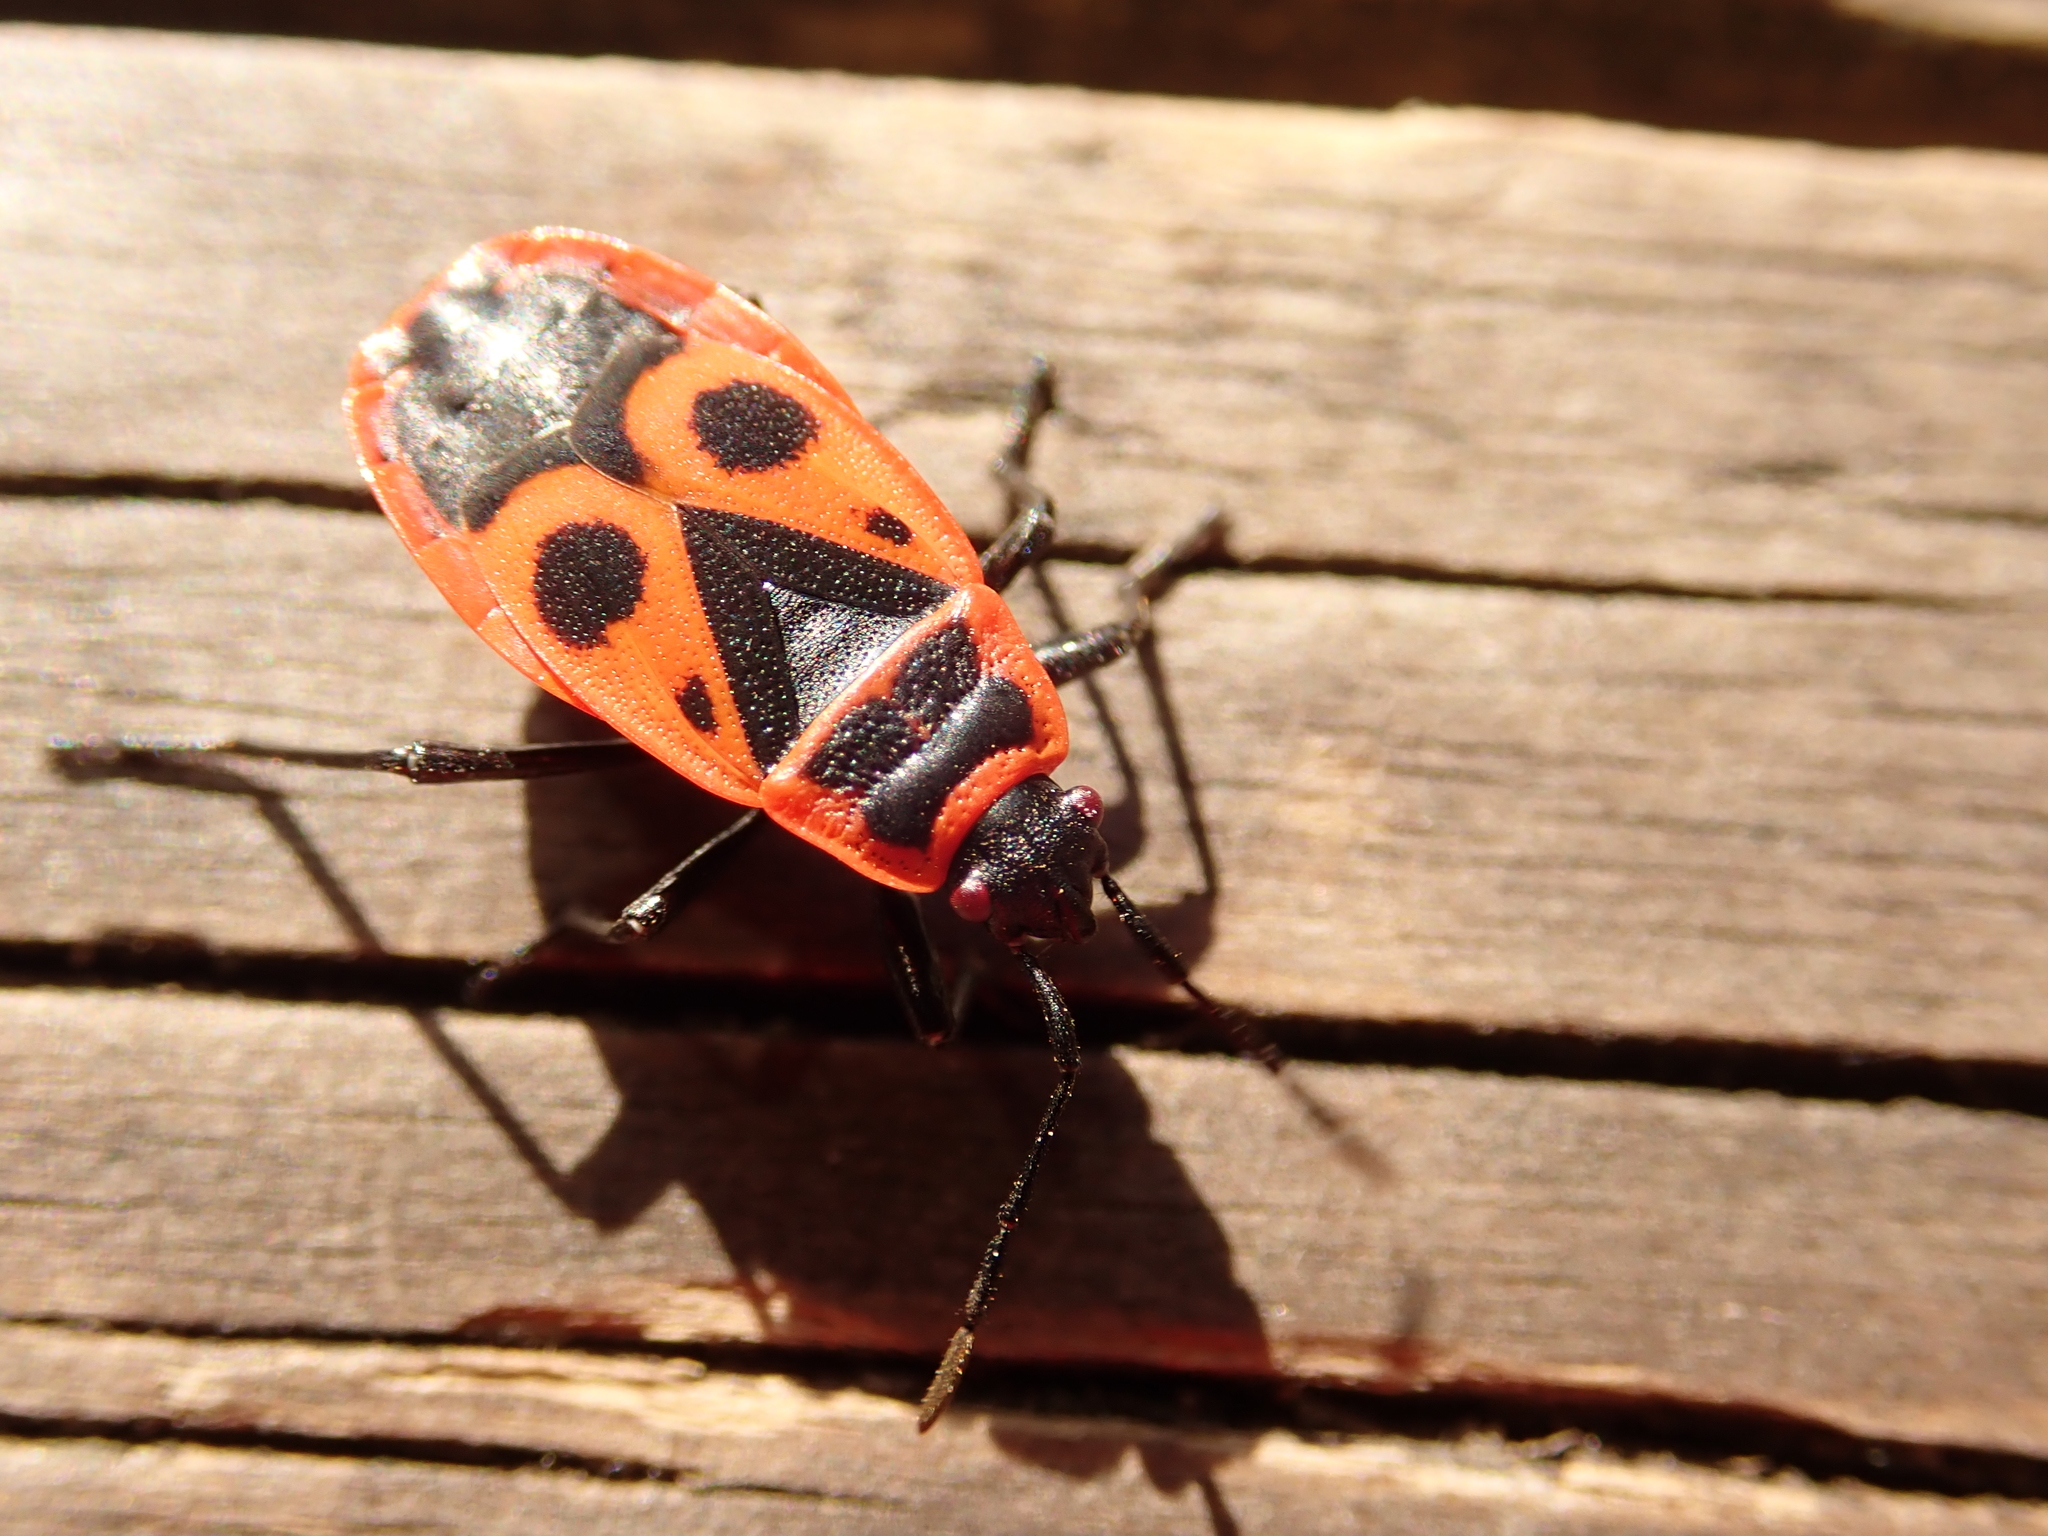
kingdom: Animalia
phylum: Arthropoda
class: Insecta
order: Hemiptera
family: Pyrrhocoridae
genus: Pyrrhocoris
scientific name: Pyrrhocoris apterus
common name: Firebug
